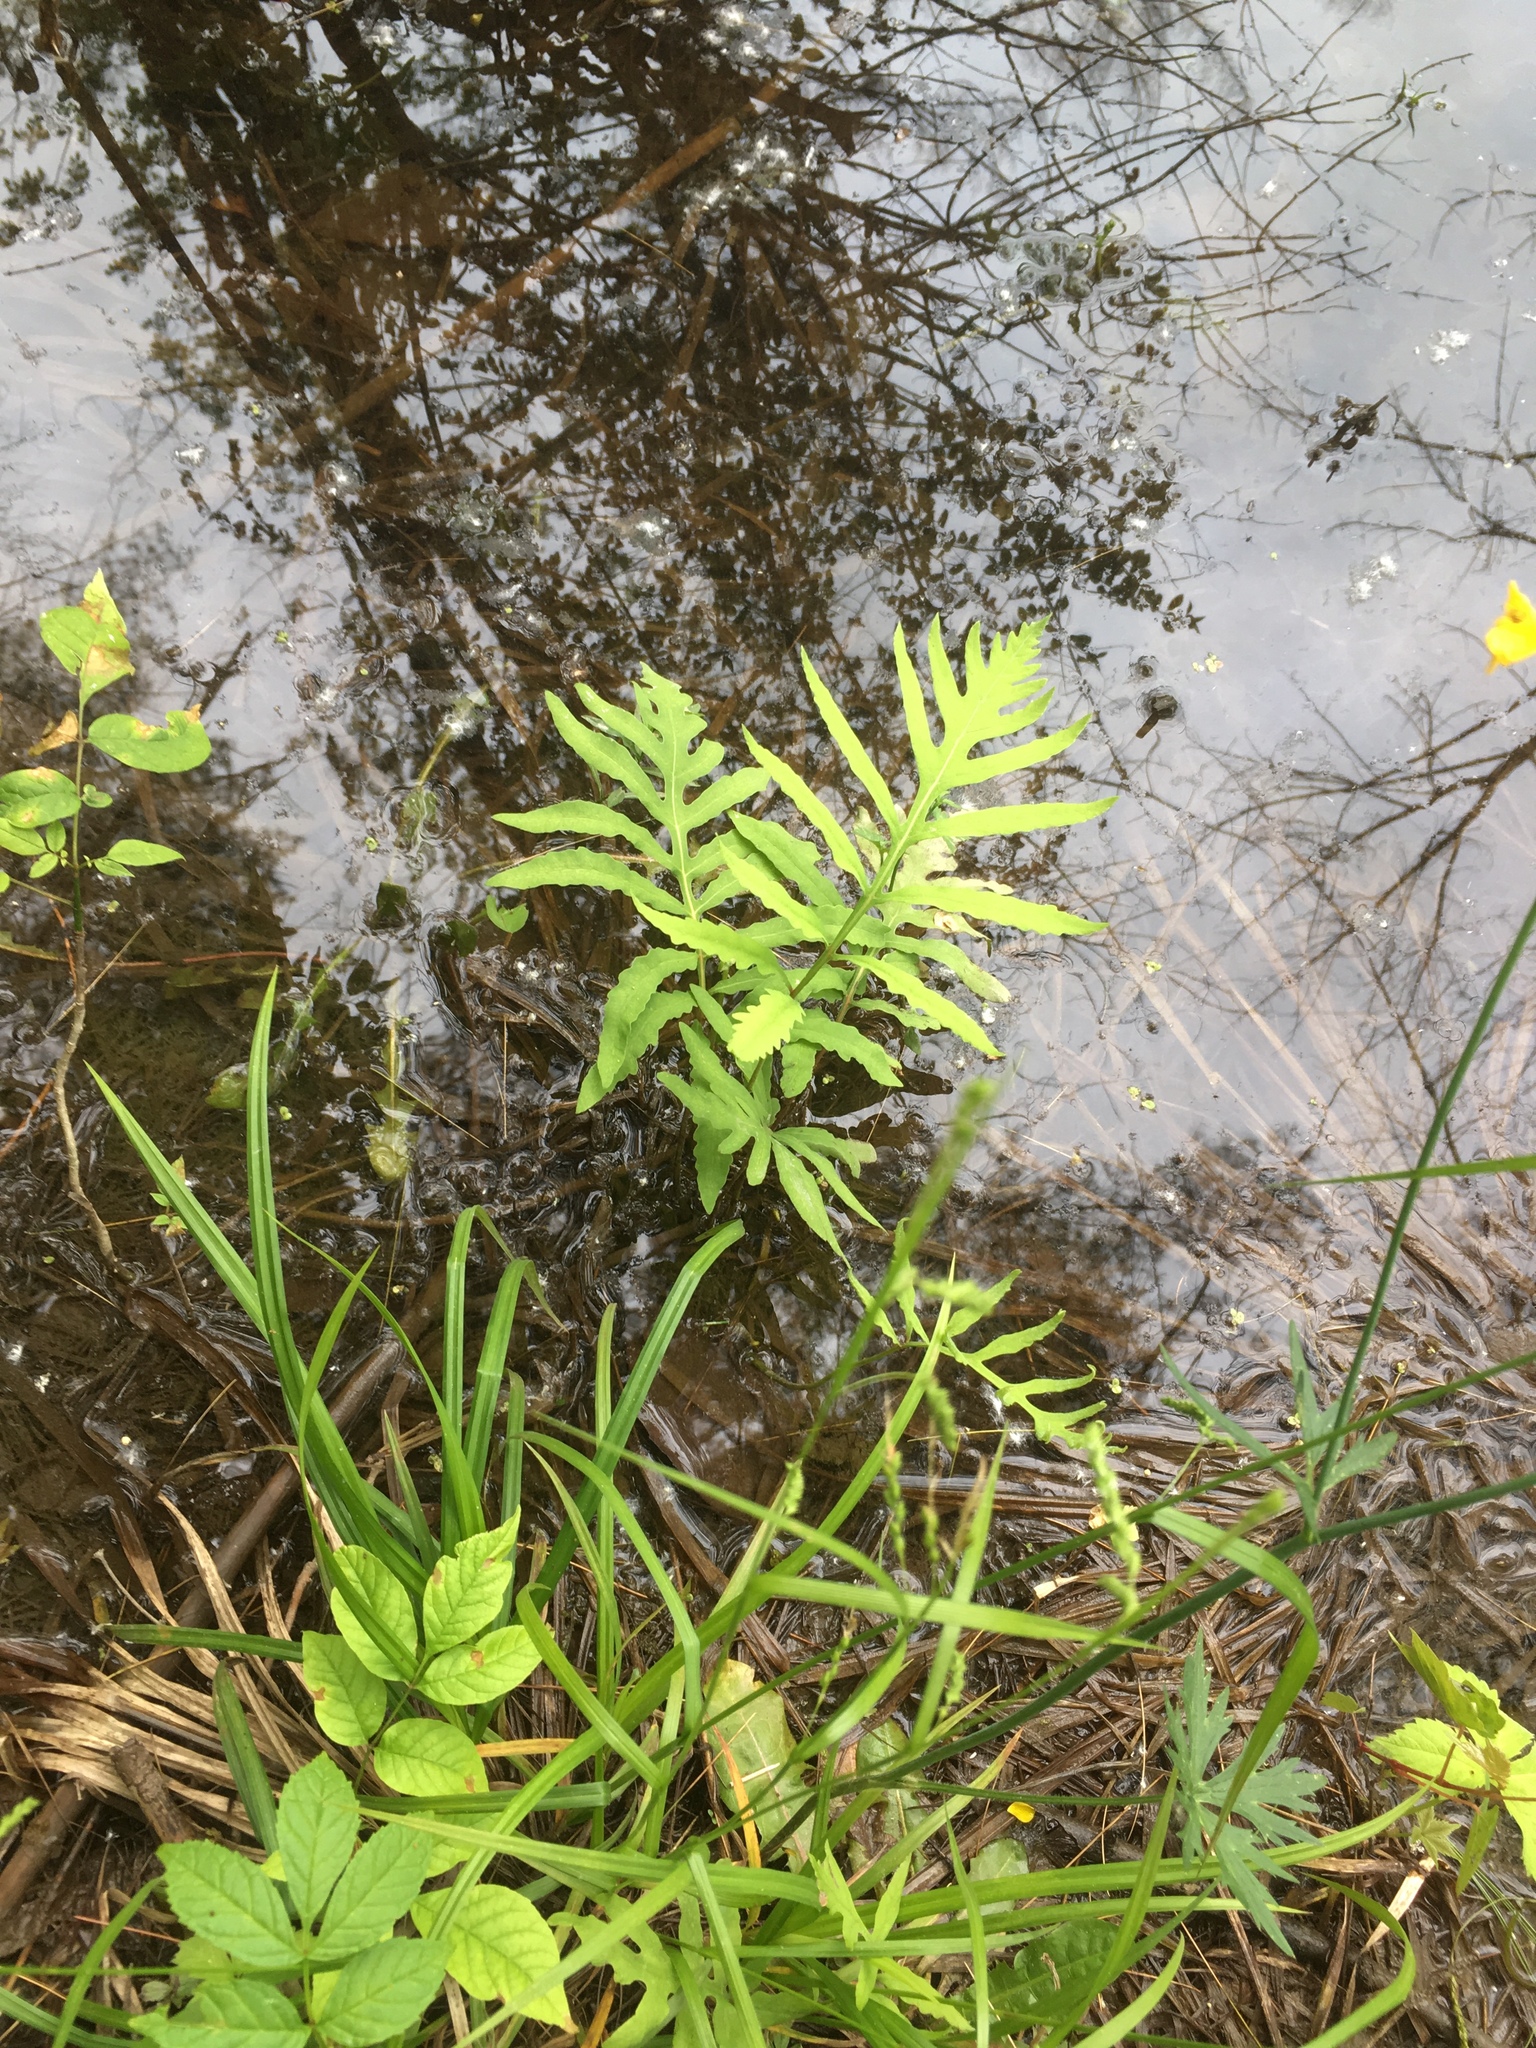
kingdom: Plantae
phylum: Tracheophyta
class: Polypodiopsida
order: Polypodiales
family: Onocleaceae
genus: Onoclea
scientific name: Onoclea sensibilis
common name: Sensitive fern
